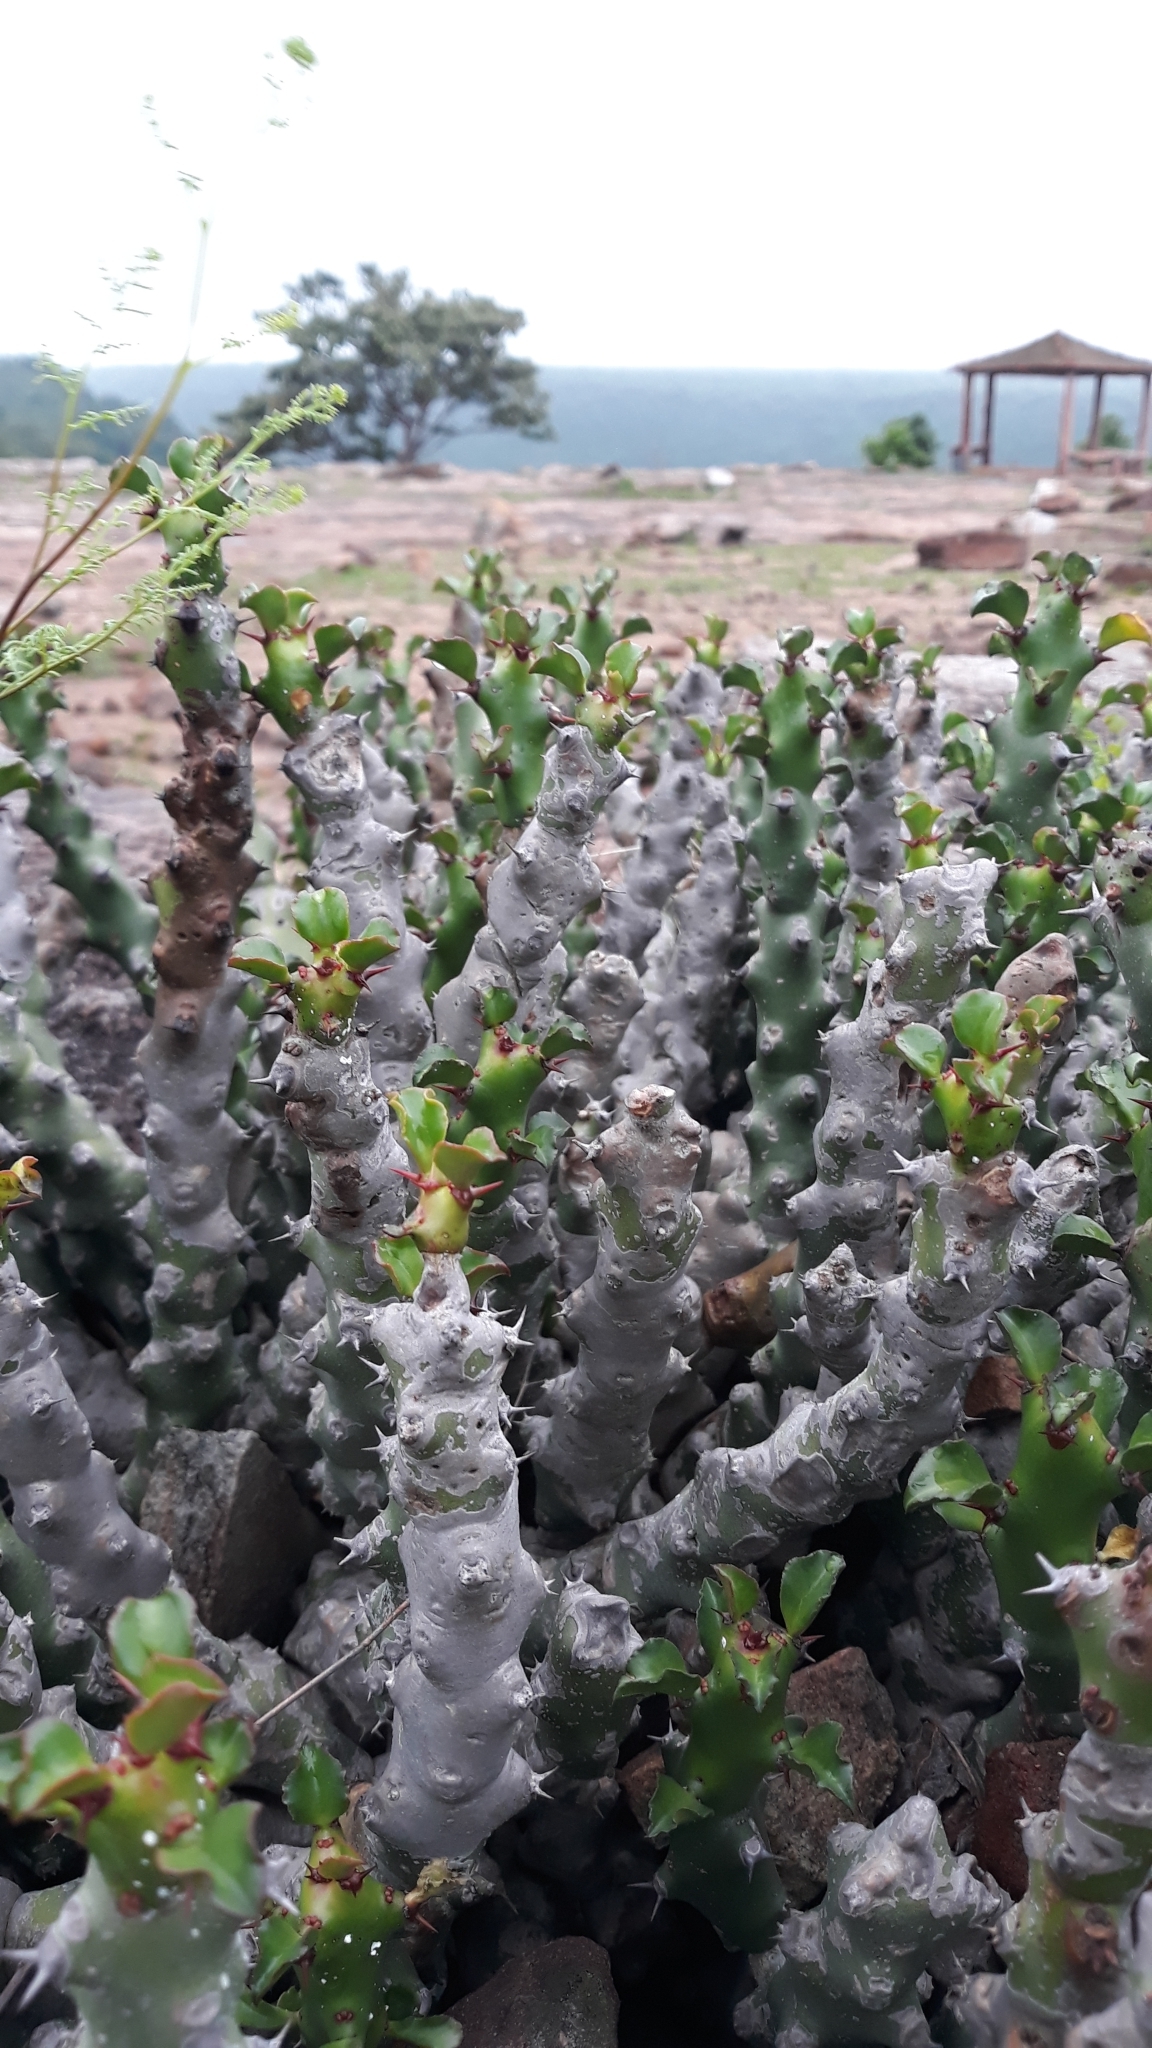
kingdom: Plantae
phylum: Tracheophyta
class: Magnoliopsida
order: Malpighiales
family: Euphorbiaceae
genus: Euphorbia
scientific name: Euphorbia caducifolia
